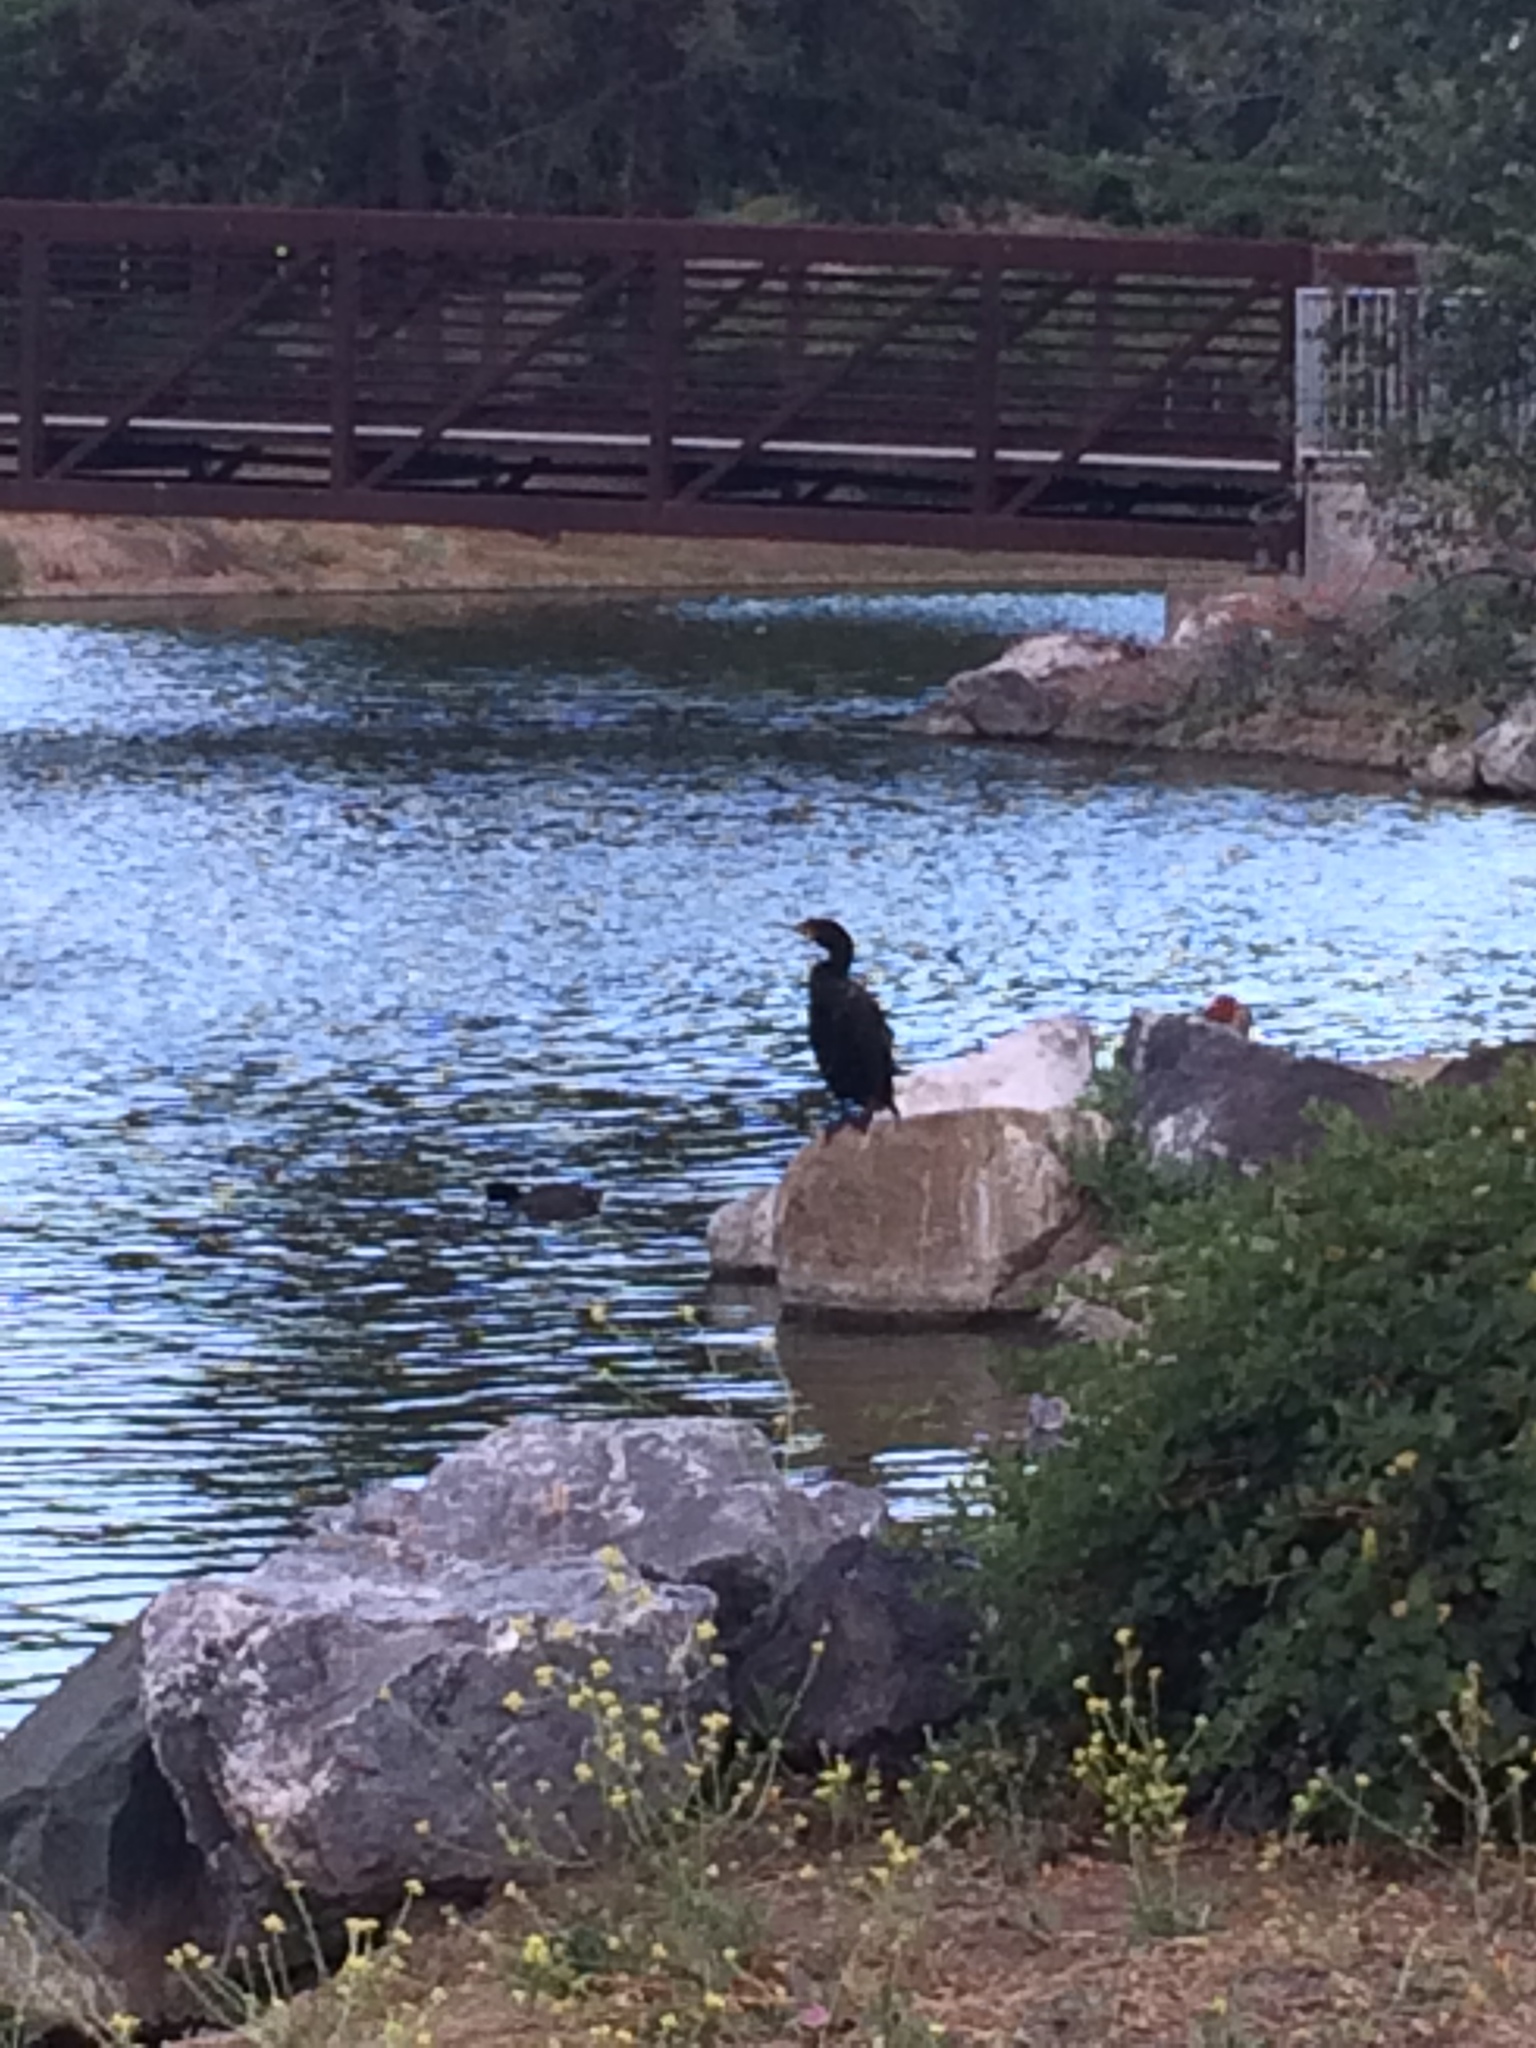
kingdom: Animalia
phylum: Chordata
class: Aves
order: Suliformes
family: Phalacrocoracidae
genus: Phalacrocorax
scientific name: Phalacrocorax auritus
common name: Double-crested cormorant
